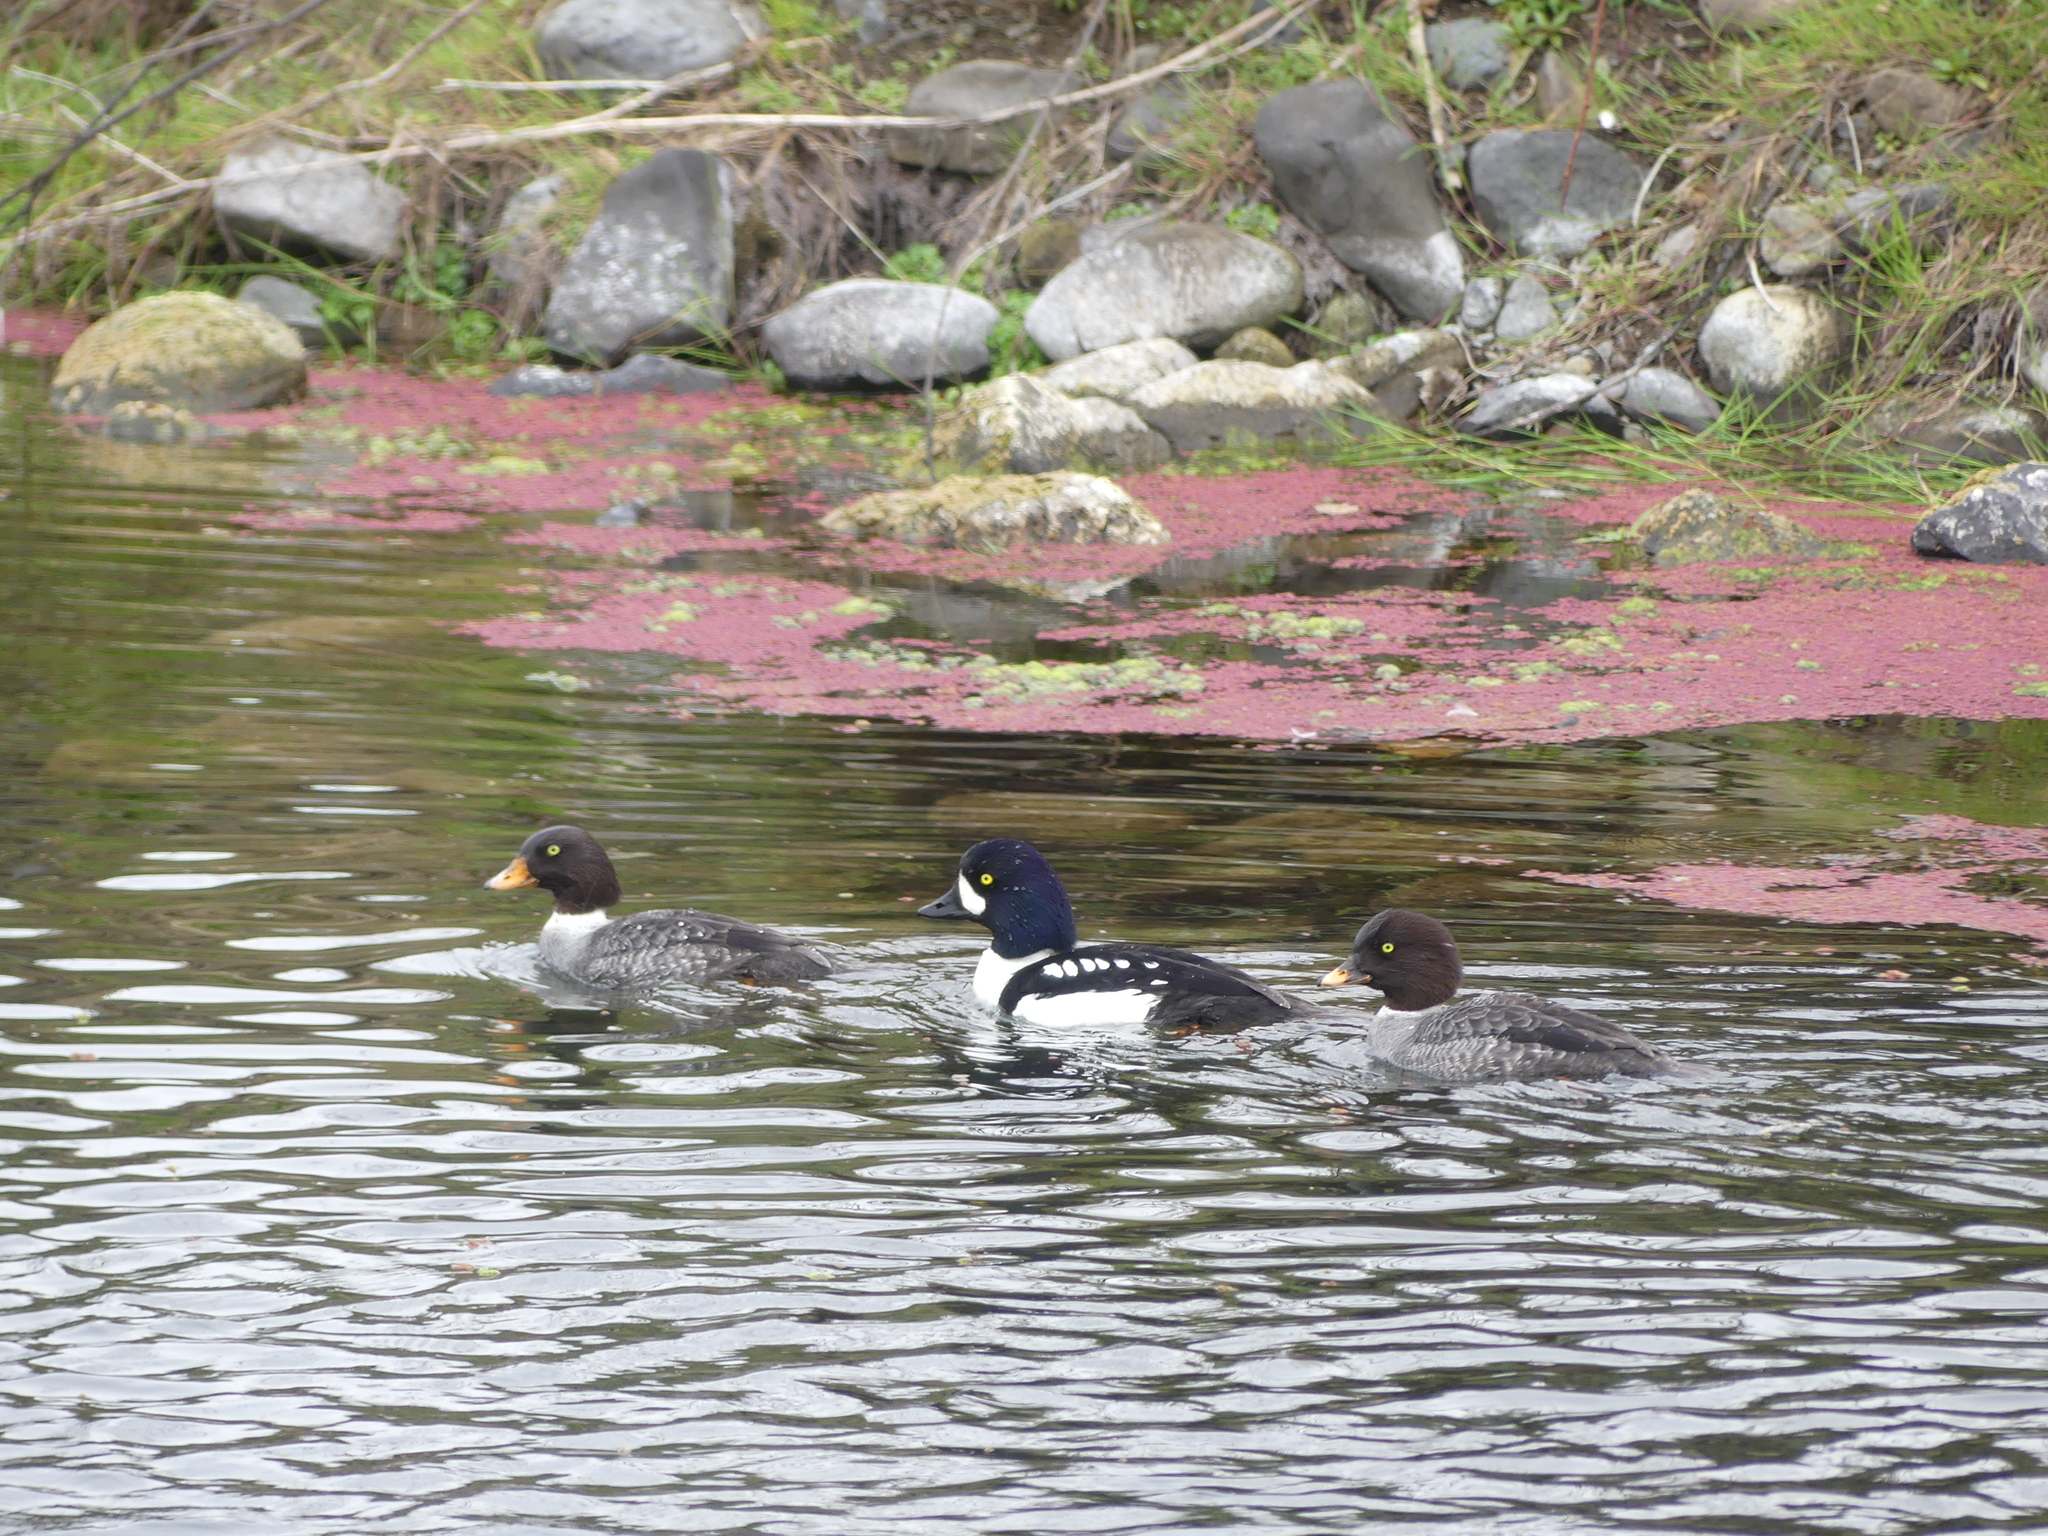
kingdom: Animalia
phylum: Chordata
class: Aves
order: Anseriformes
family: Anatidae
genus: Bucephala
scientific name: Bucephala islandica
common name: Barrow's goldeneye
